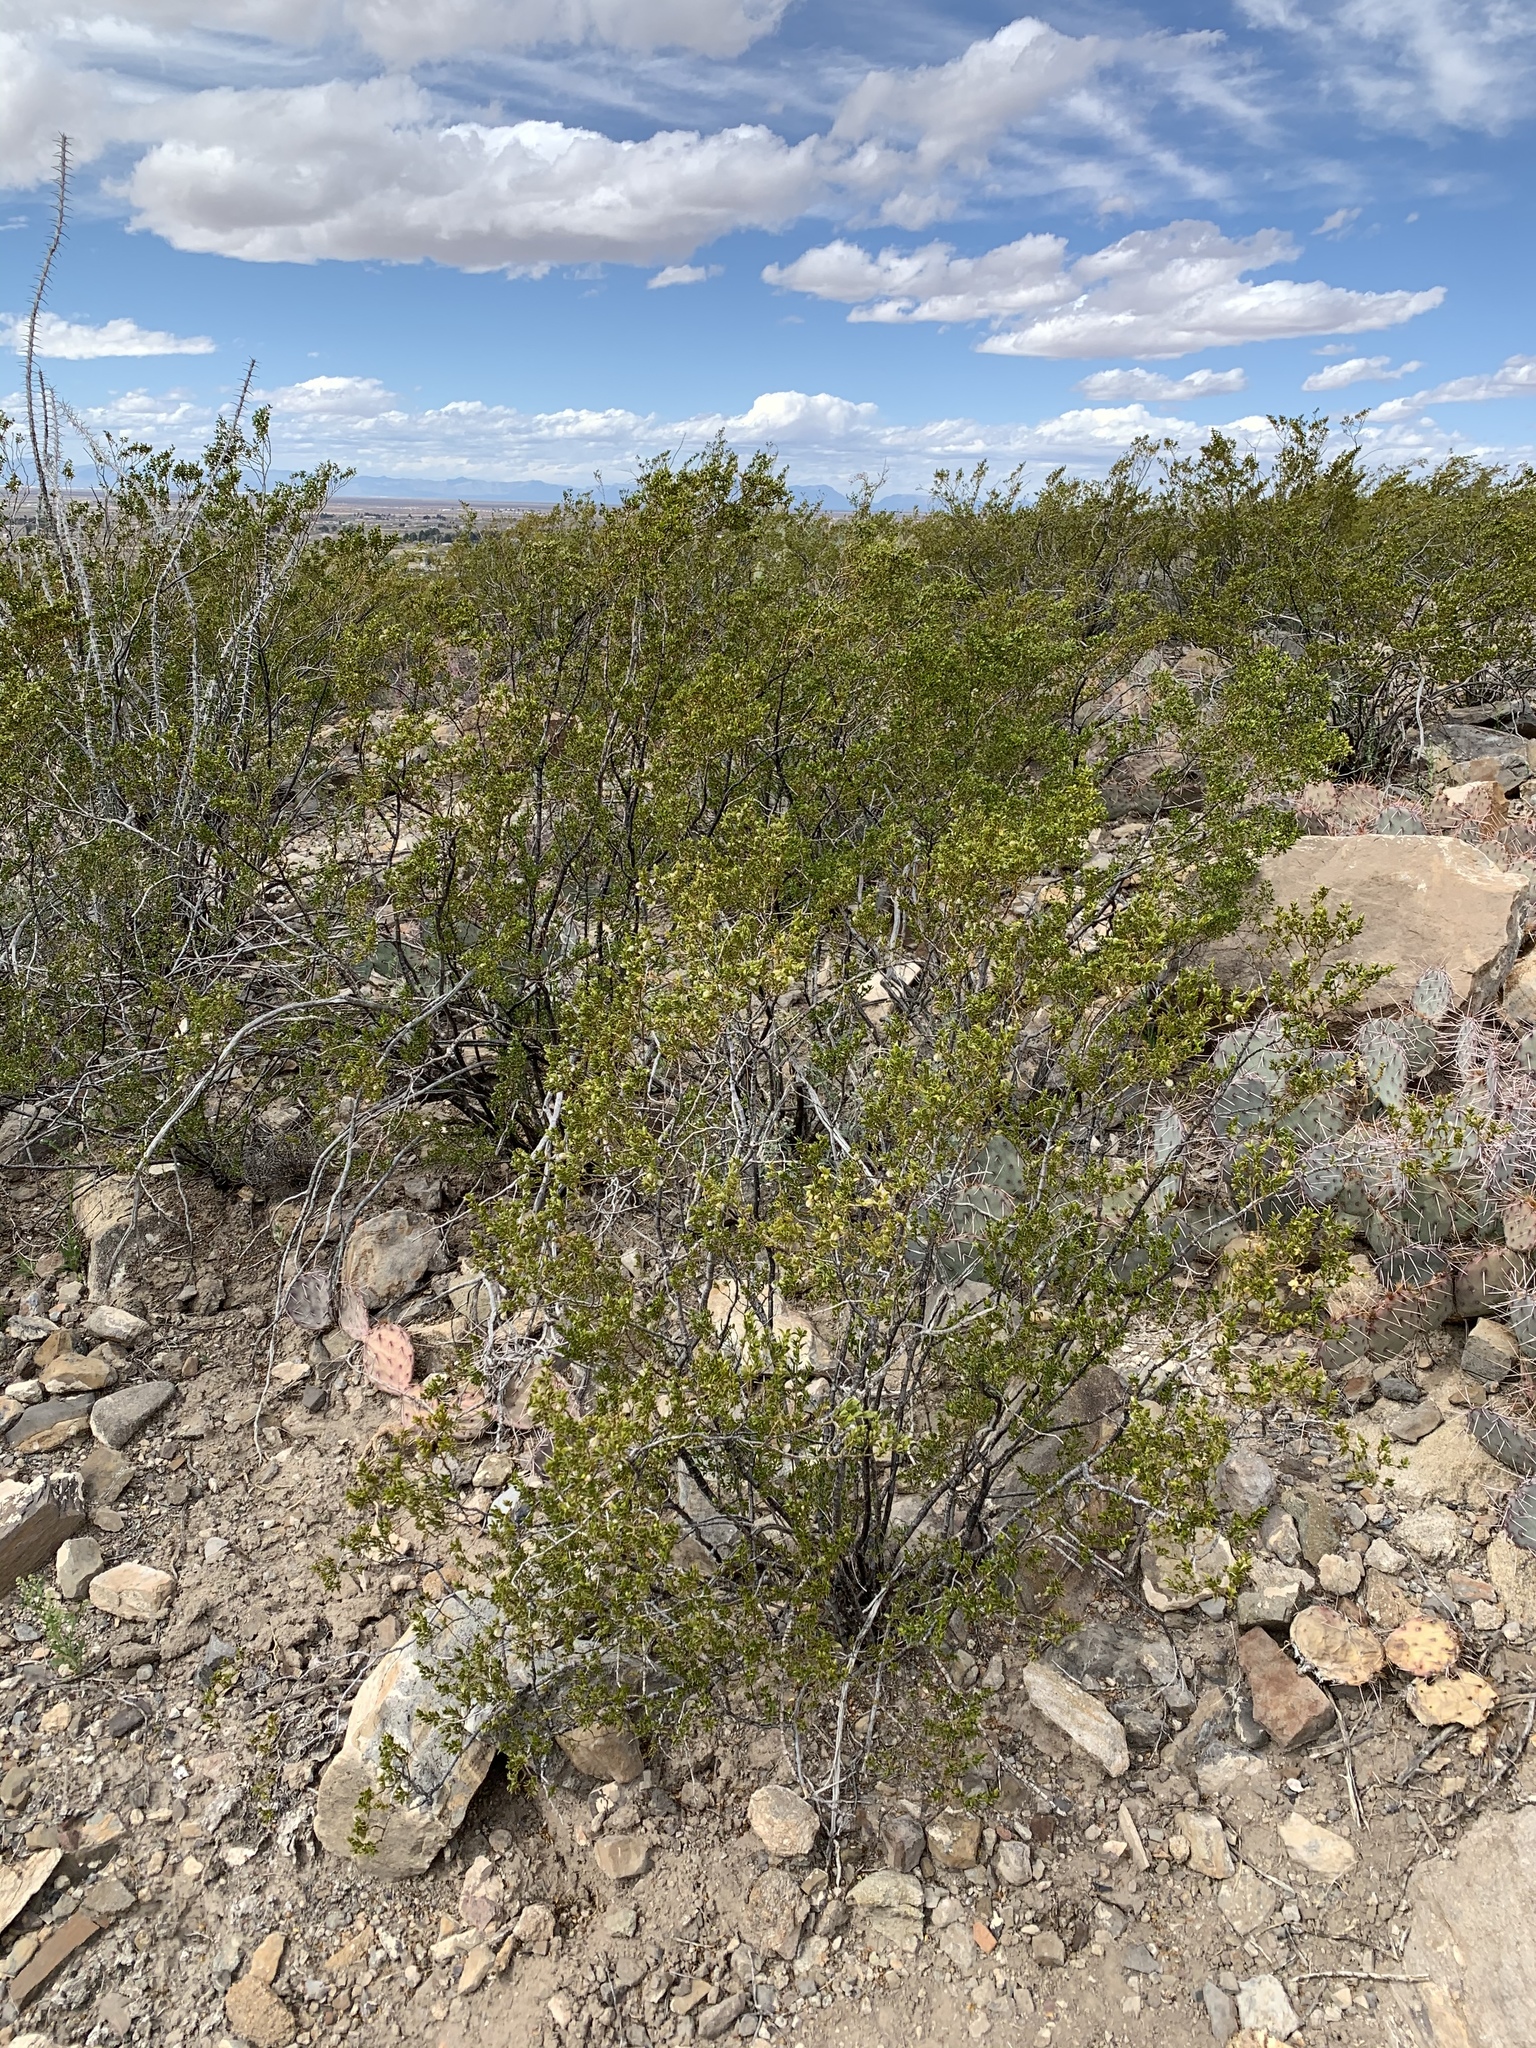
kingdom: Plantae
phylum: Tracheophyta
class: Magnoliopsida
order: Zygophyllales
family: Zygophyllaceae
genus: Larrea
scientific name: Larrea tridentata
